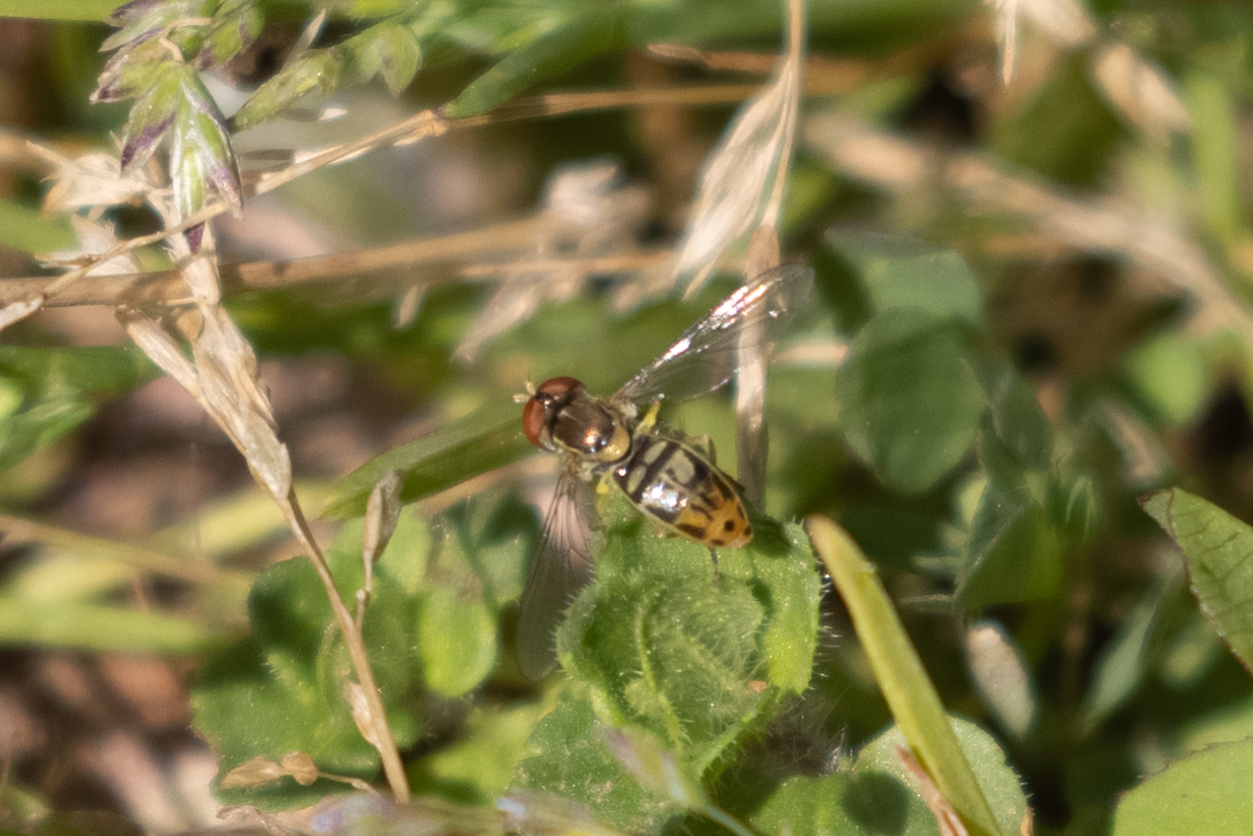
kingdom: Animalia
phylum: Arthropoda
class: Insecta
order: Diptera
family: Syrphidae
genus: Toxomerus
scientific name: Toxomerus marginatus
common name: Syrphid fly
